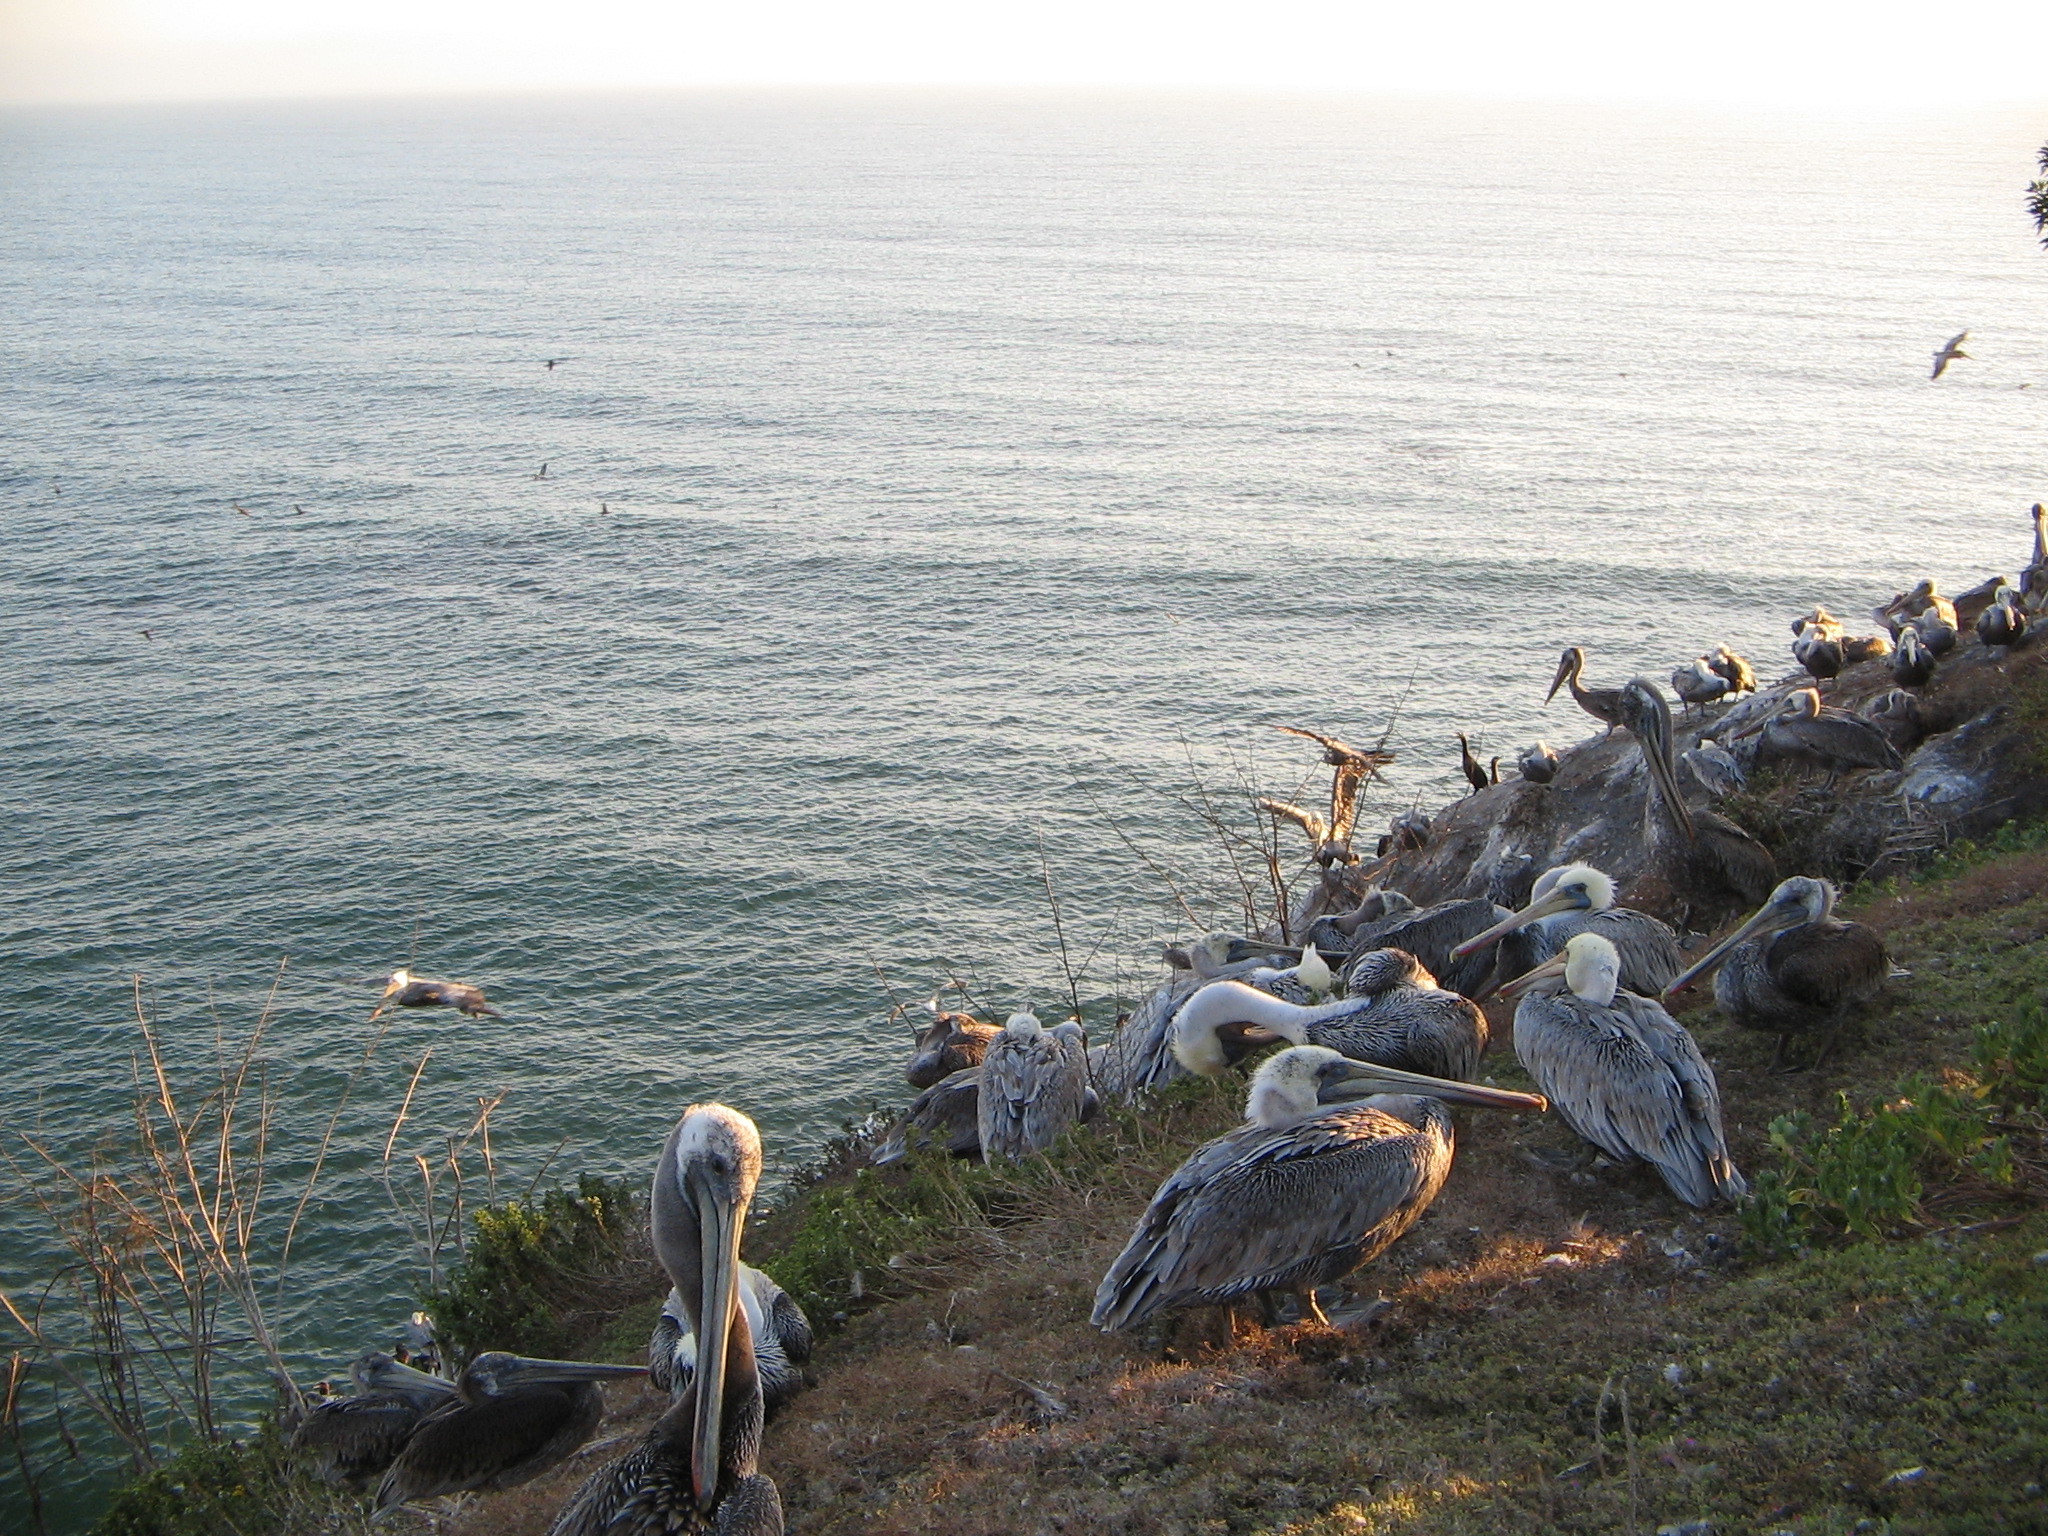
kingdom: Animalia
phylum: Chordata
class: Aves
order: Pelecaniformes
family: Pelecanidae
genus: Pelecanus
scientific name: Pelecanus occidentalis
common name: Brown pelican
